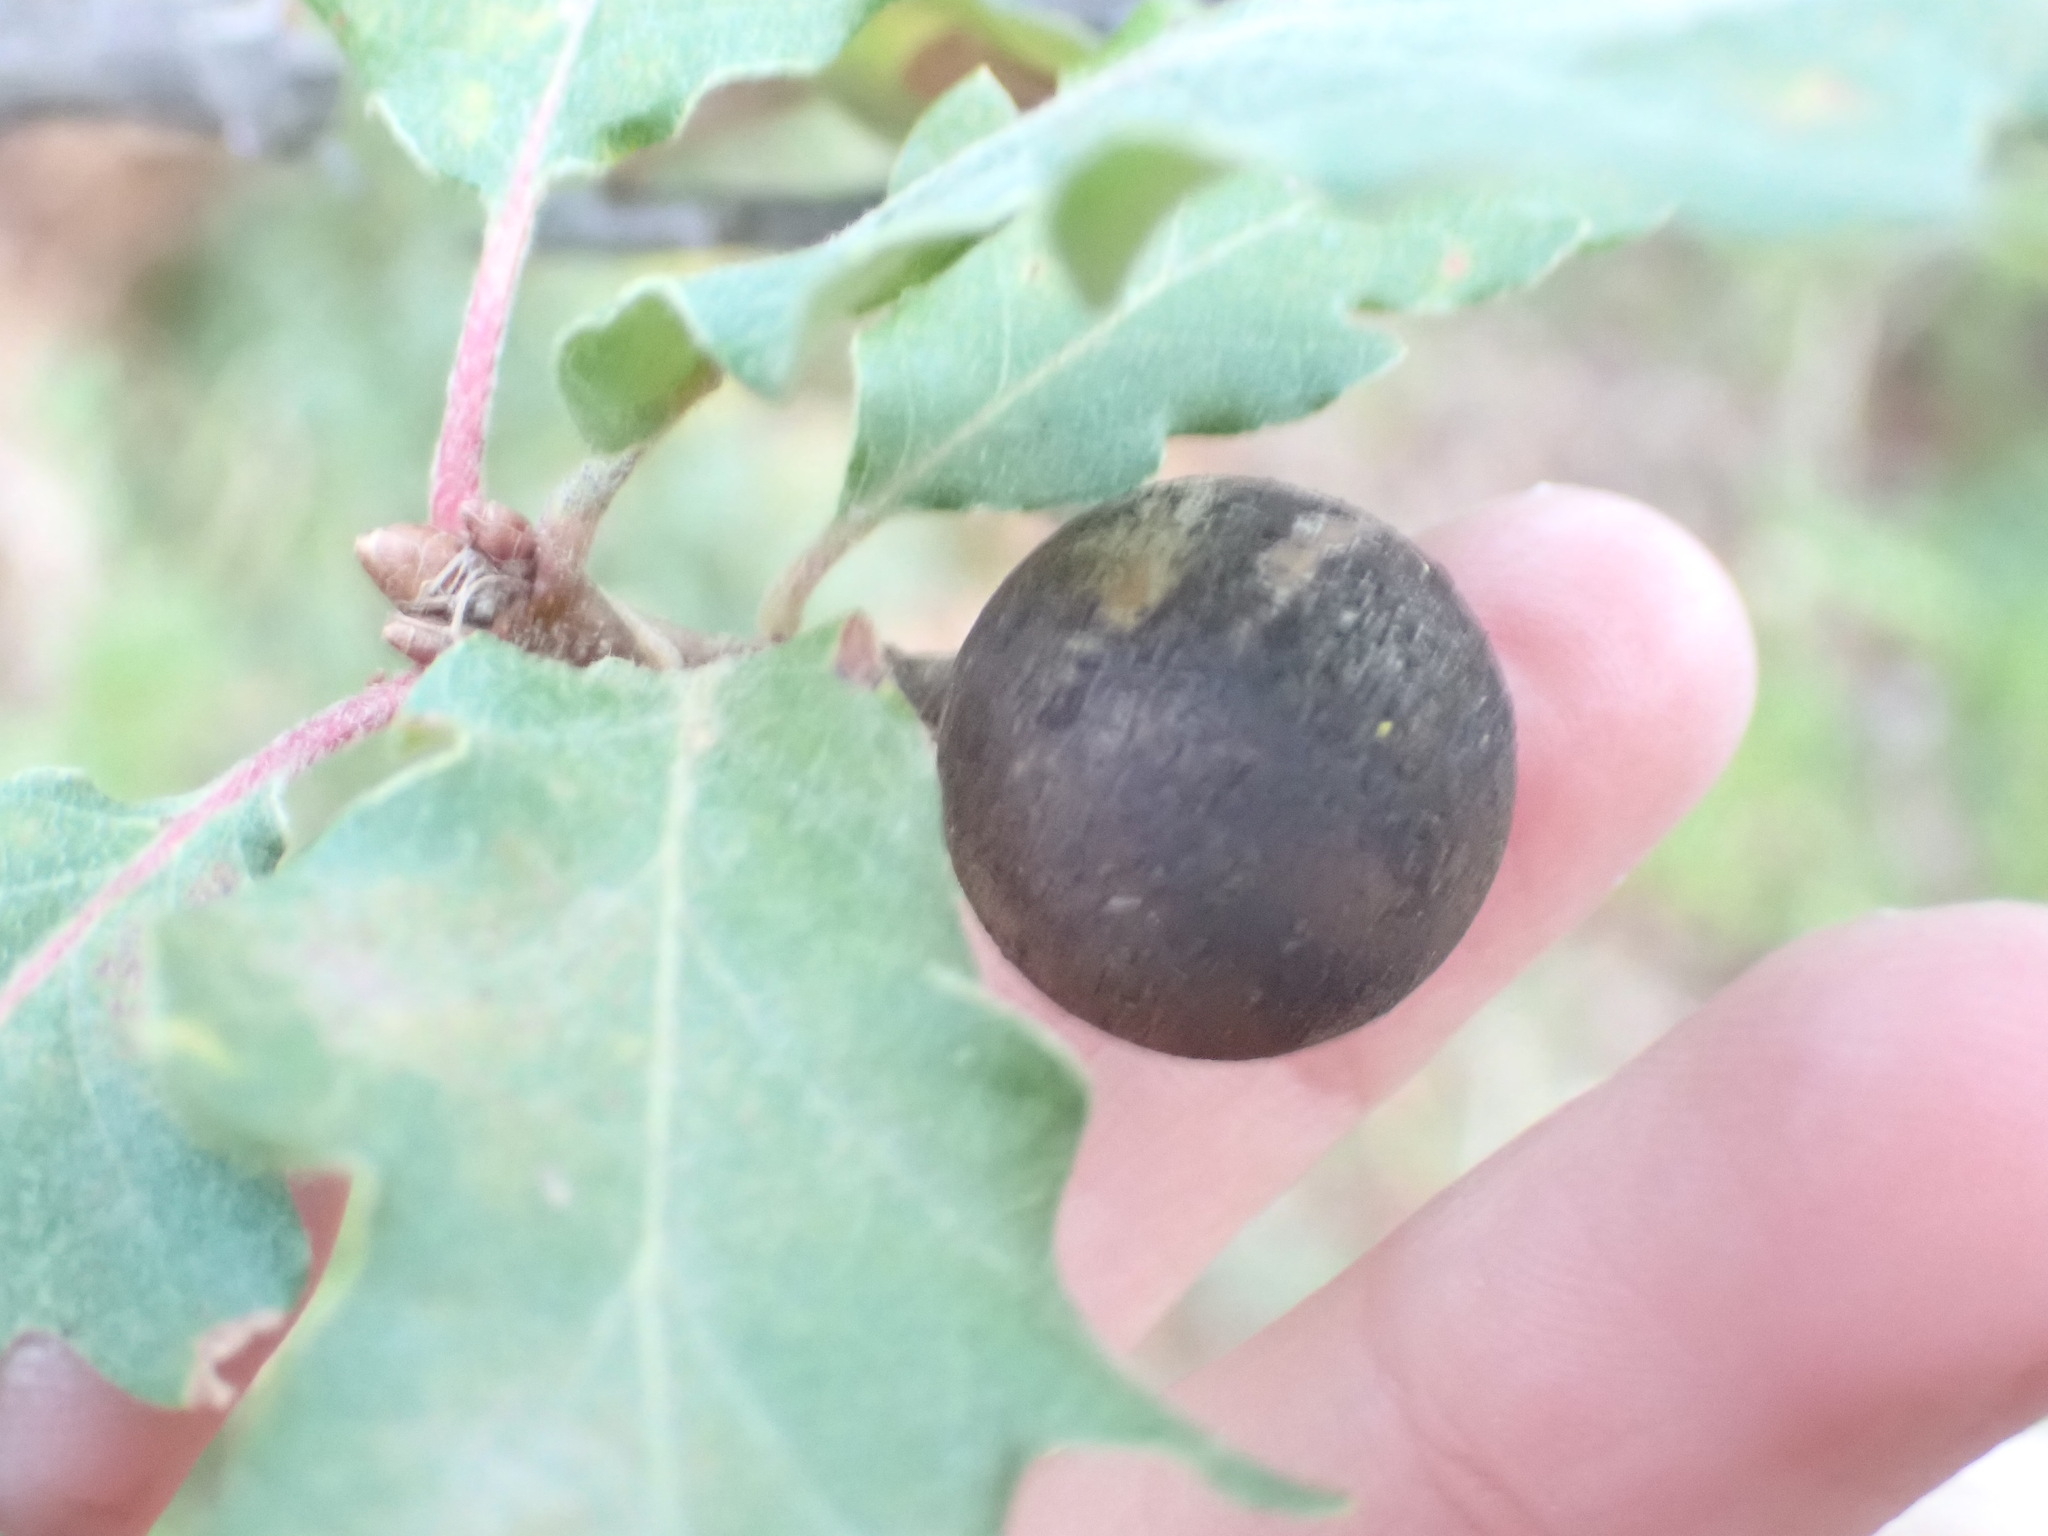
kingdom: Animalia
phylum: Arthropoda
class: Insecta
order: Hymenoptera
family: Cynipidae
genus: Andricus
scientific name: Andricus kollari
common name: Marble gall
